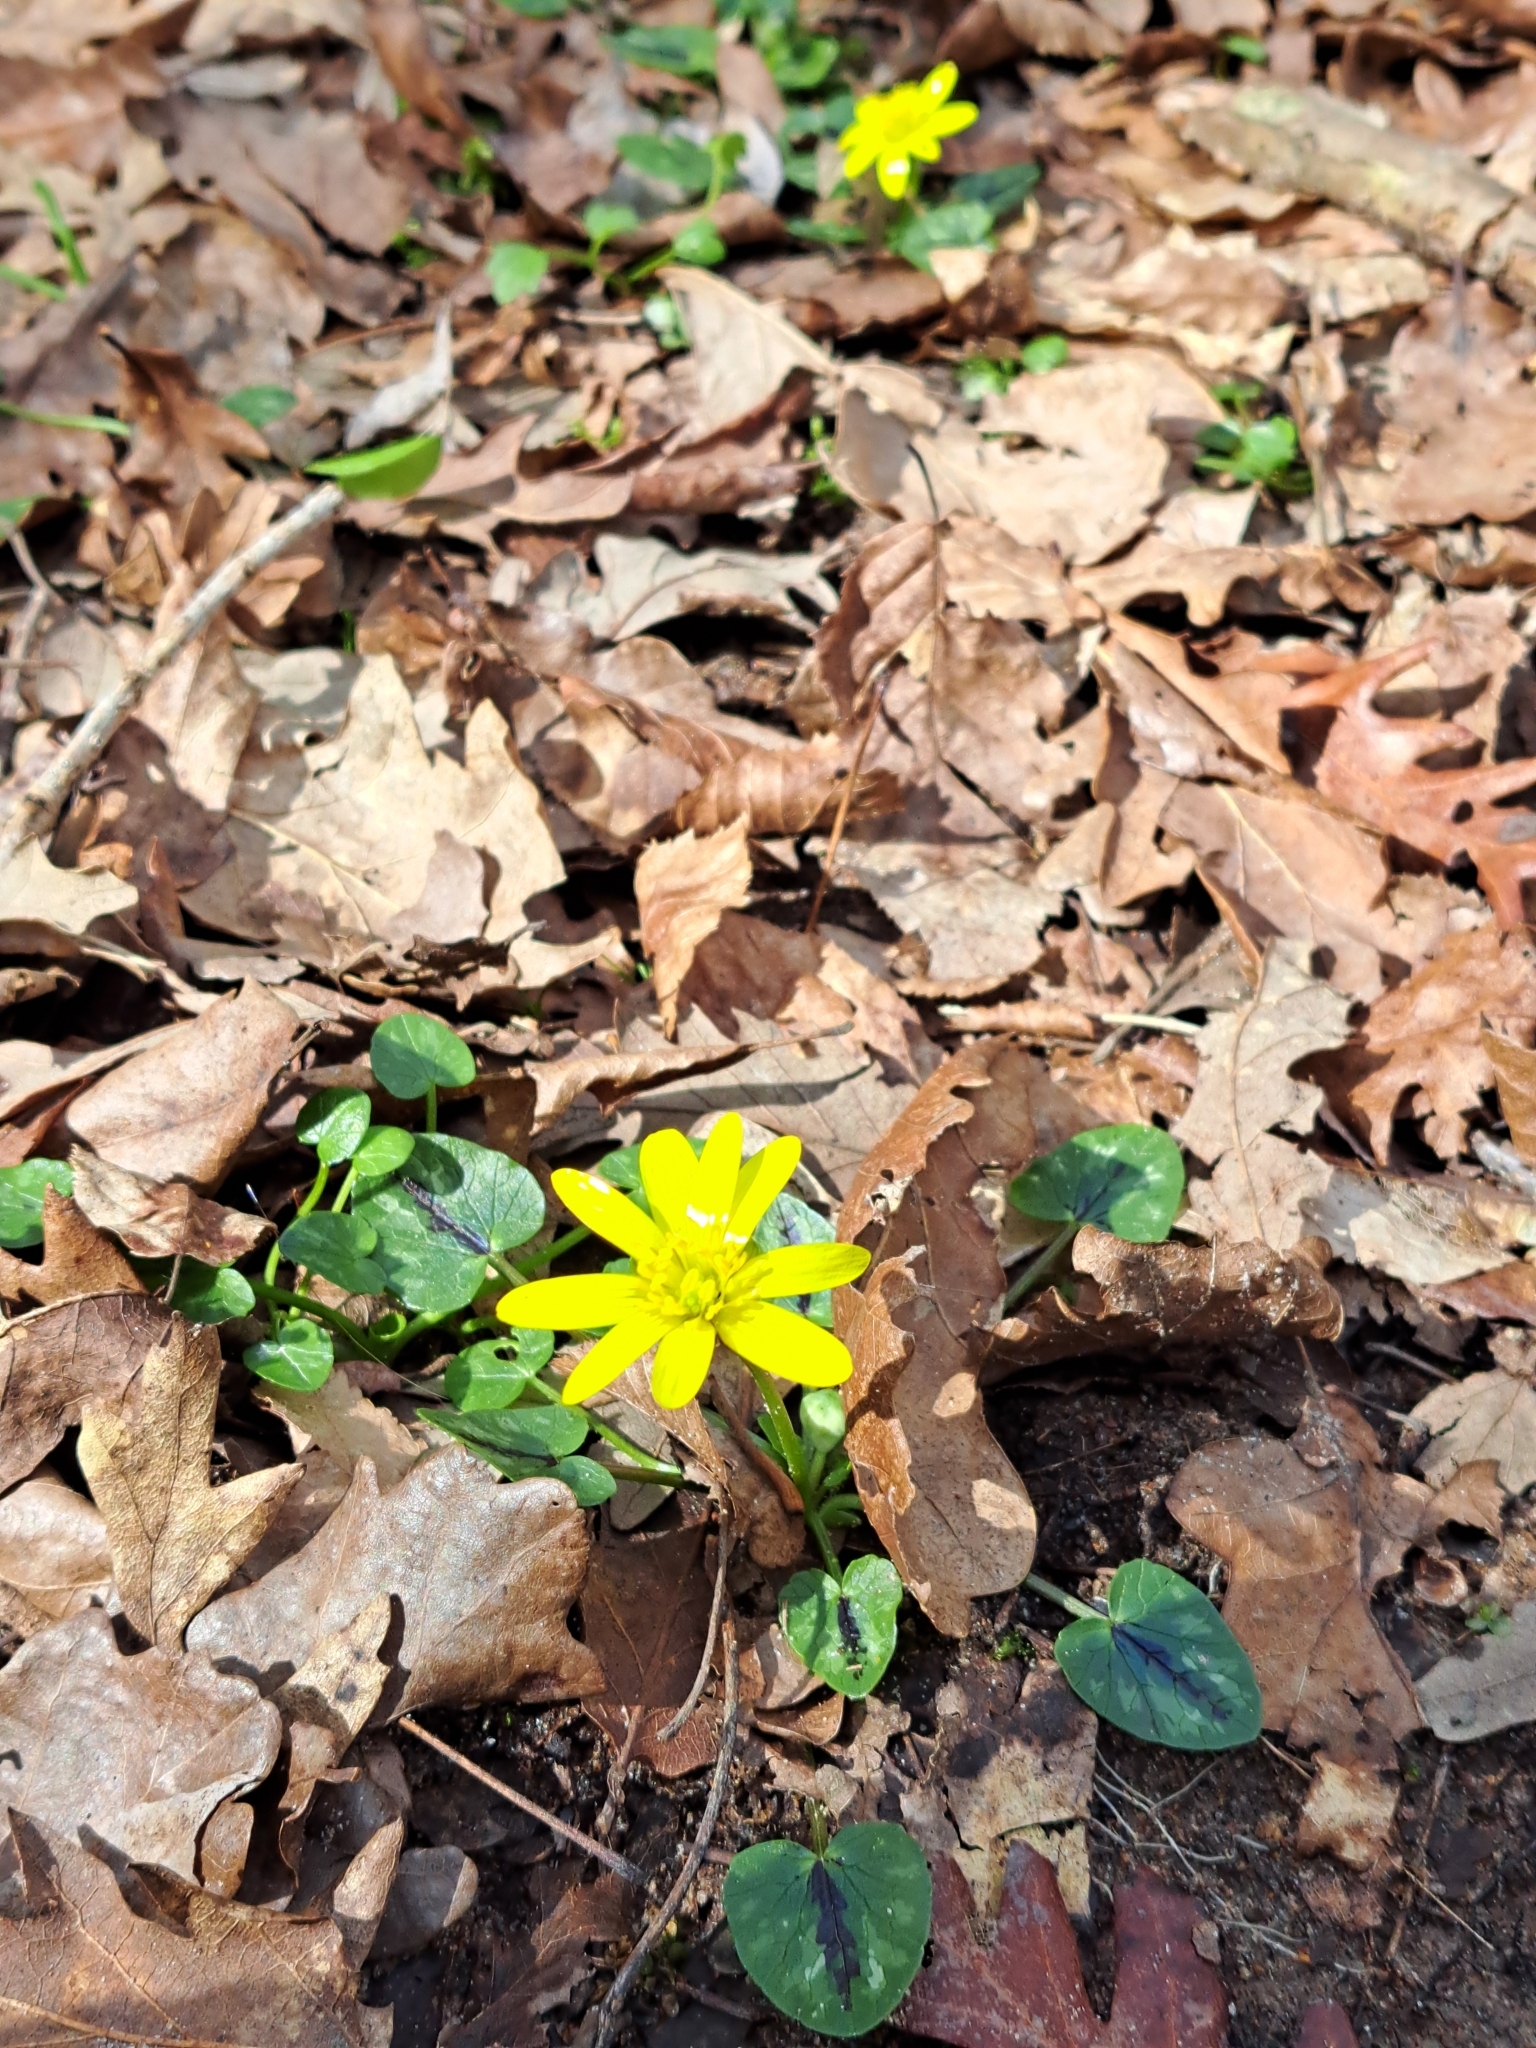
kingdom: Plantae
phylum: Tracheophyta
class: Magnoliopsida
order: Ranunculales
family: Ranunculaceae
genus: Ficaria
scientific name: Ficaria verna
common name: Lesser celandine
